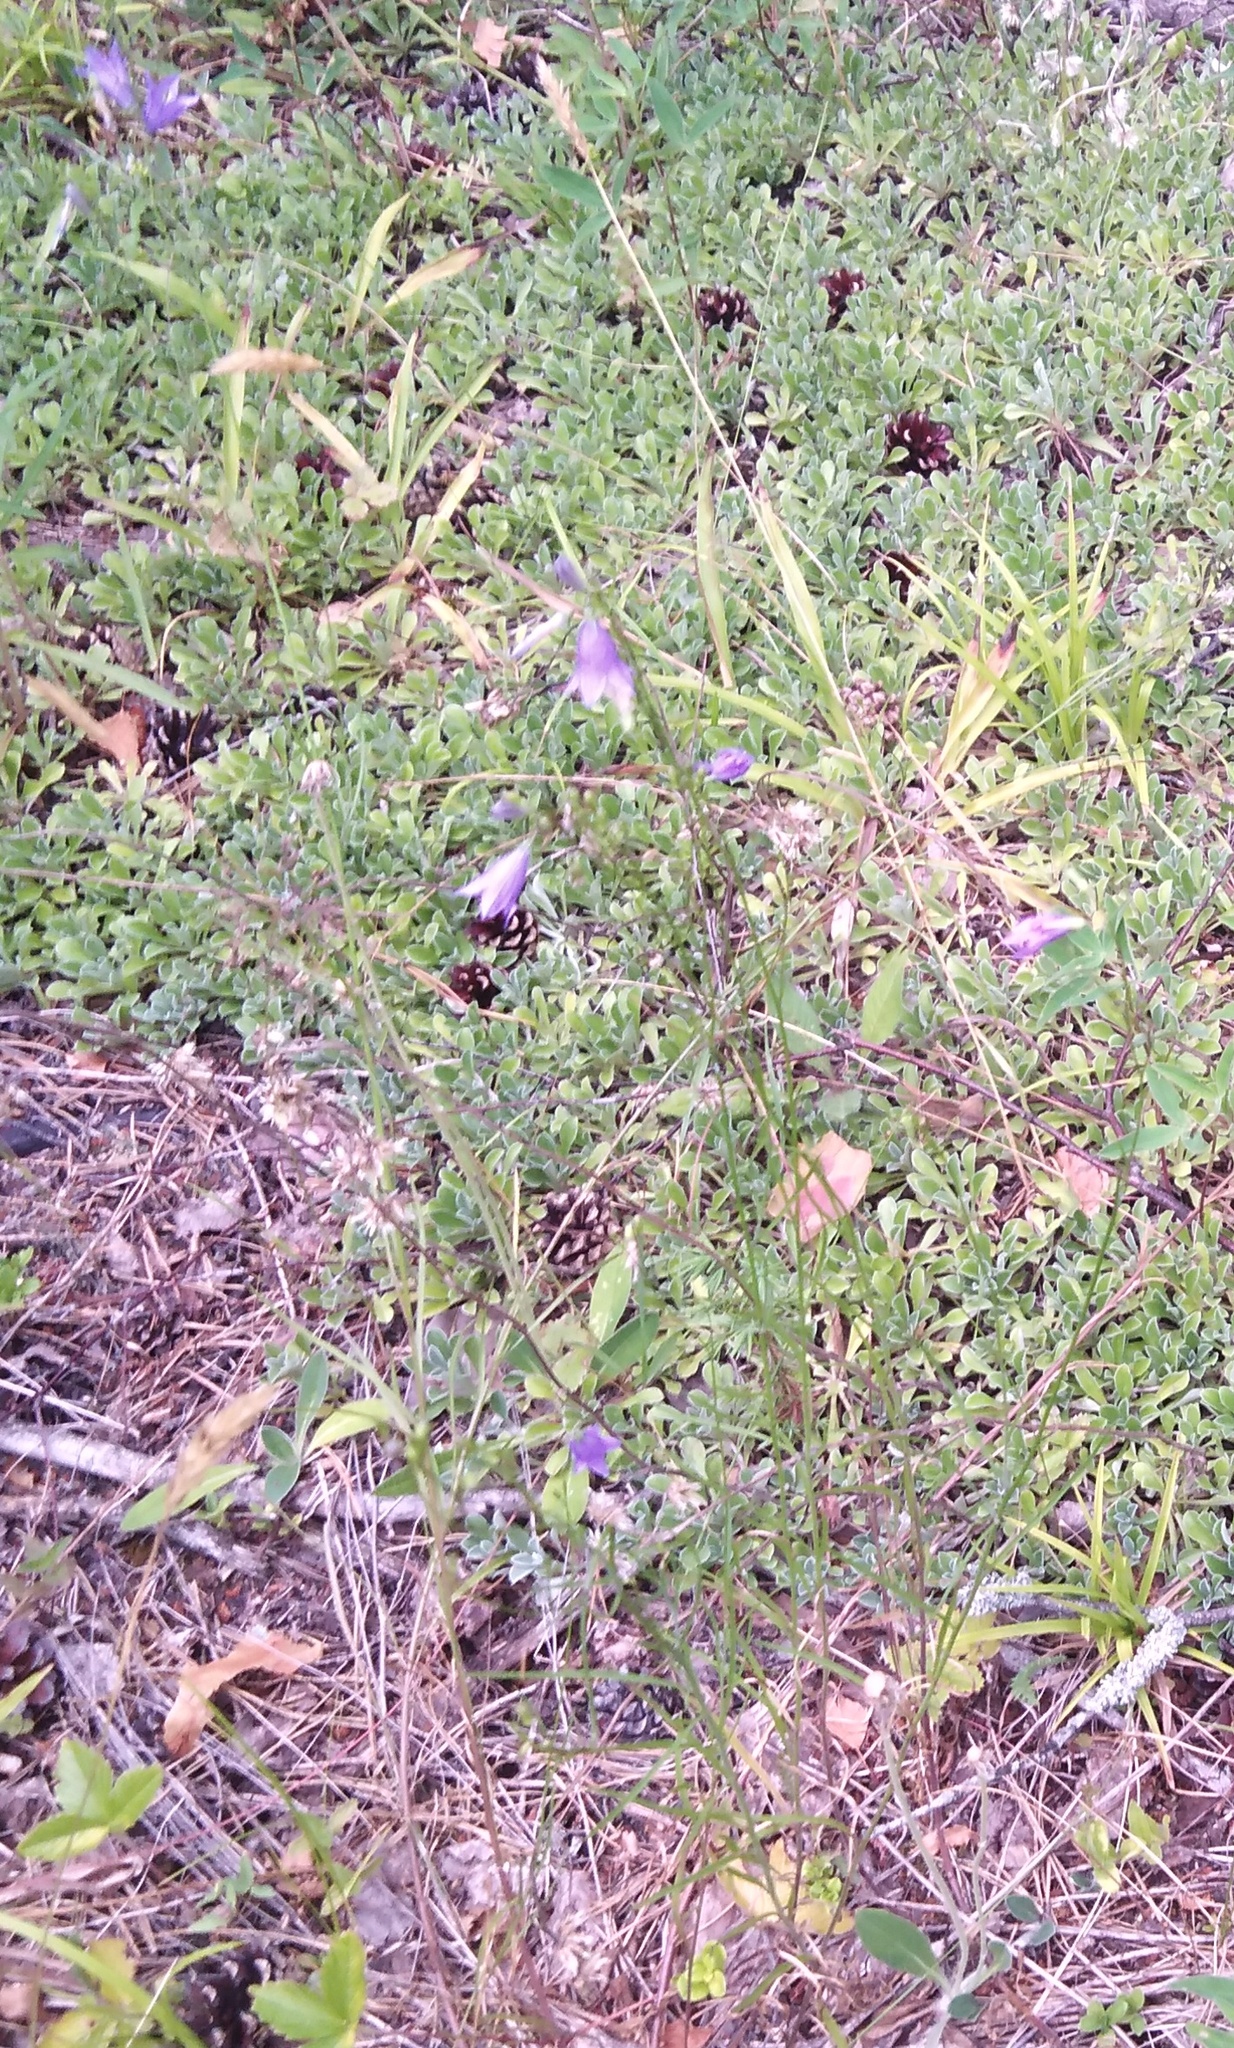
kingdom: Plantae
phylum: Tracheophyta
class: Magnoliopsida
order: Asterales
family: Campanulaceae
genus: Campanula
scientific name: Campanula rotundifolia
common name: Harebell
